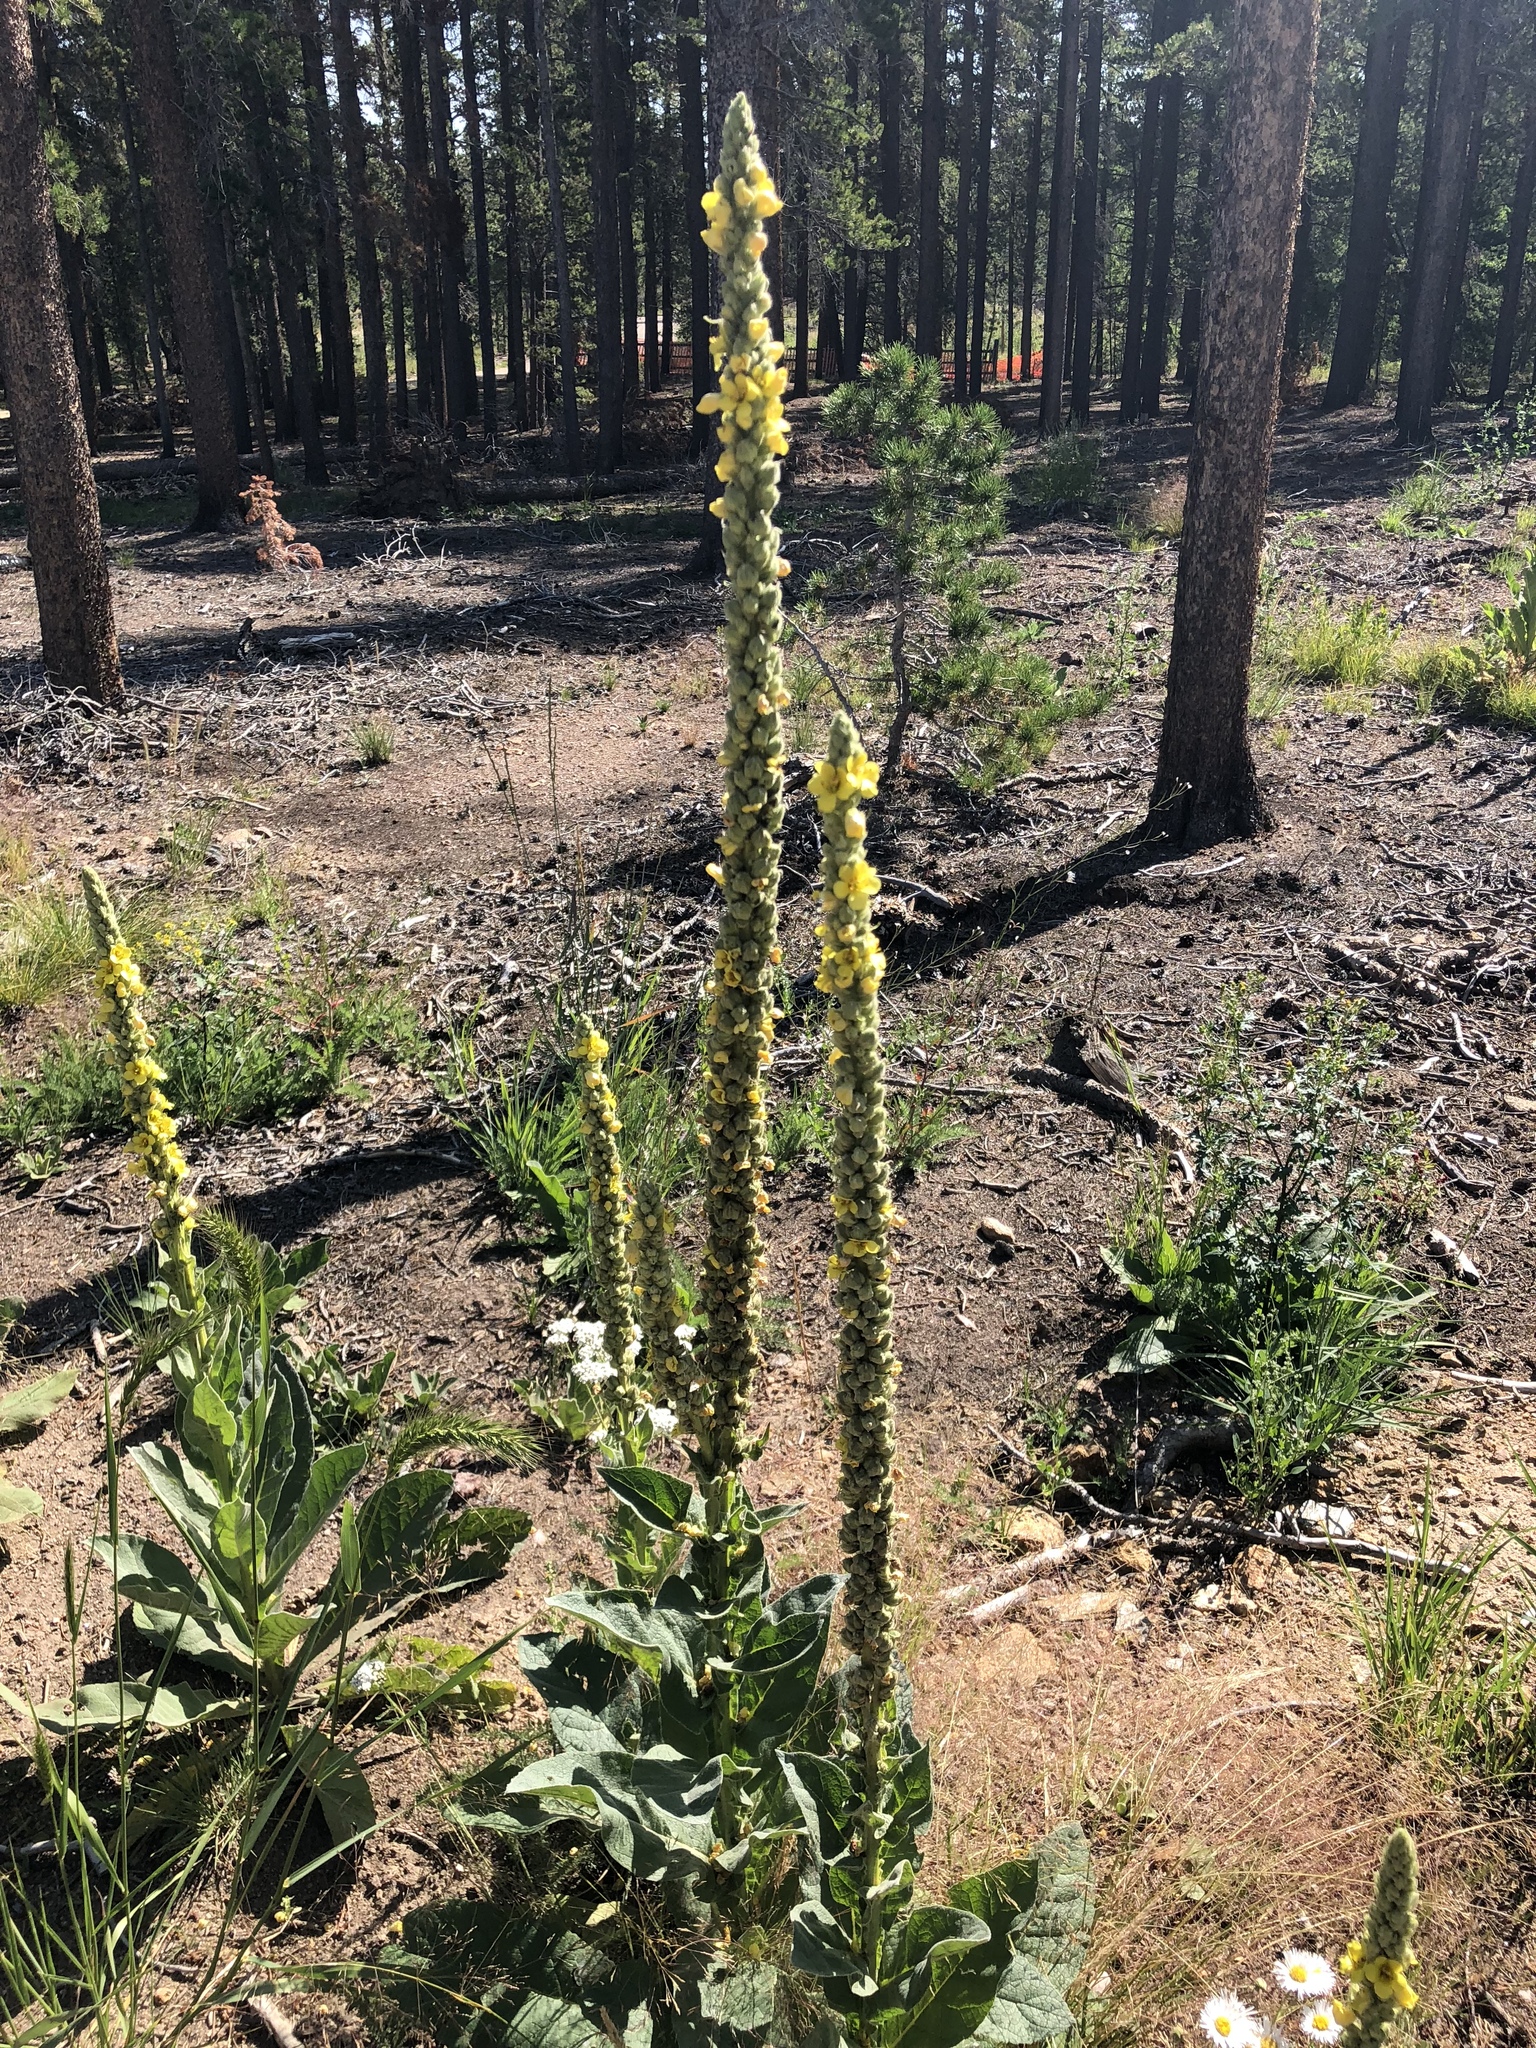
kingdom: Plantae
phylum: Tracheophyta
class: Magnoliopsida
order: Lamiales
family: Scrophulariaceae
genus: Verbascum
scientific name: Verbascum thapsus
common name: Common mullein
